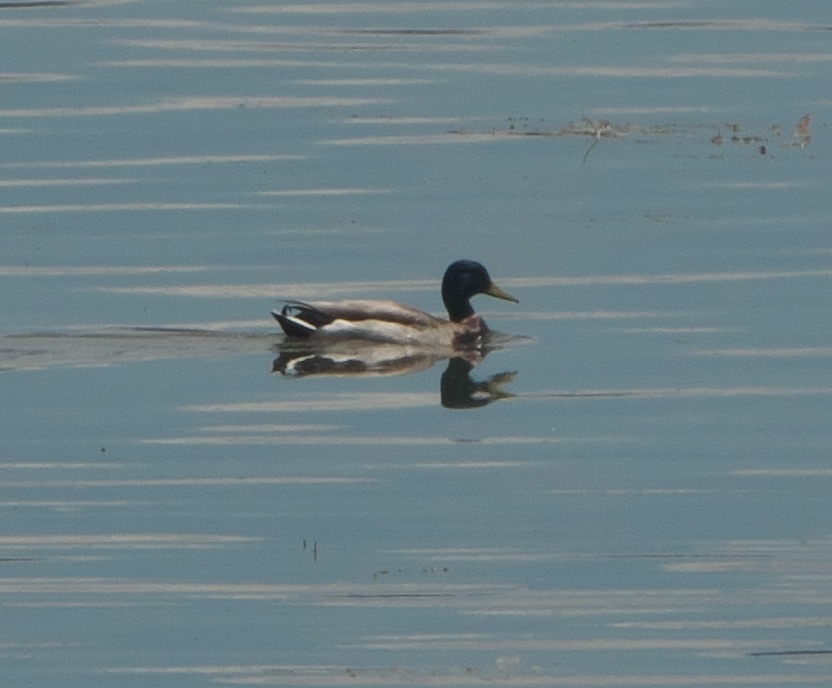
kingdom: Animalia
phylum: Chordata
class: Aves
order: Anseriformes
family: Anatidae
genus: Anas
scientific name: Anas platyrhynchos
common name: Mallard
